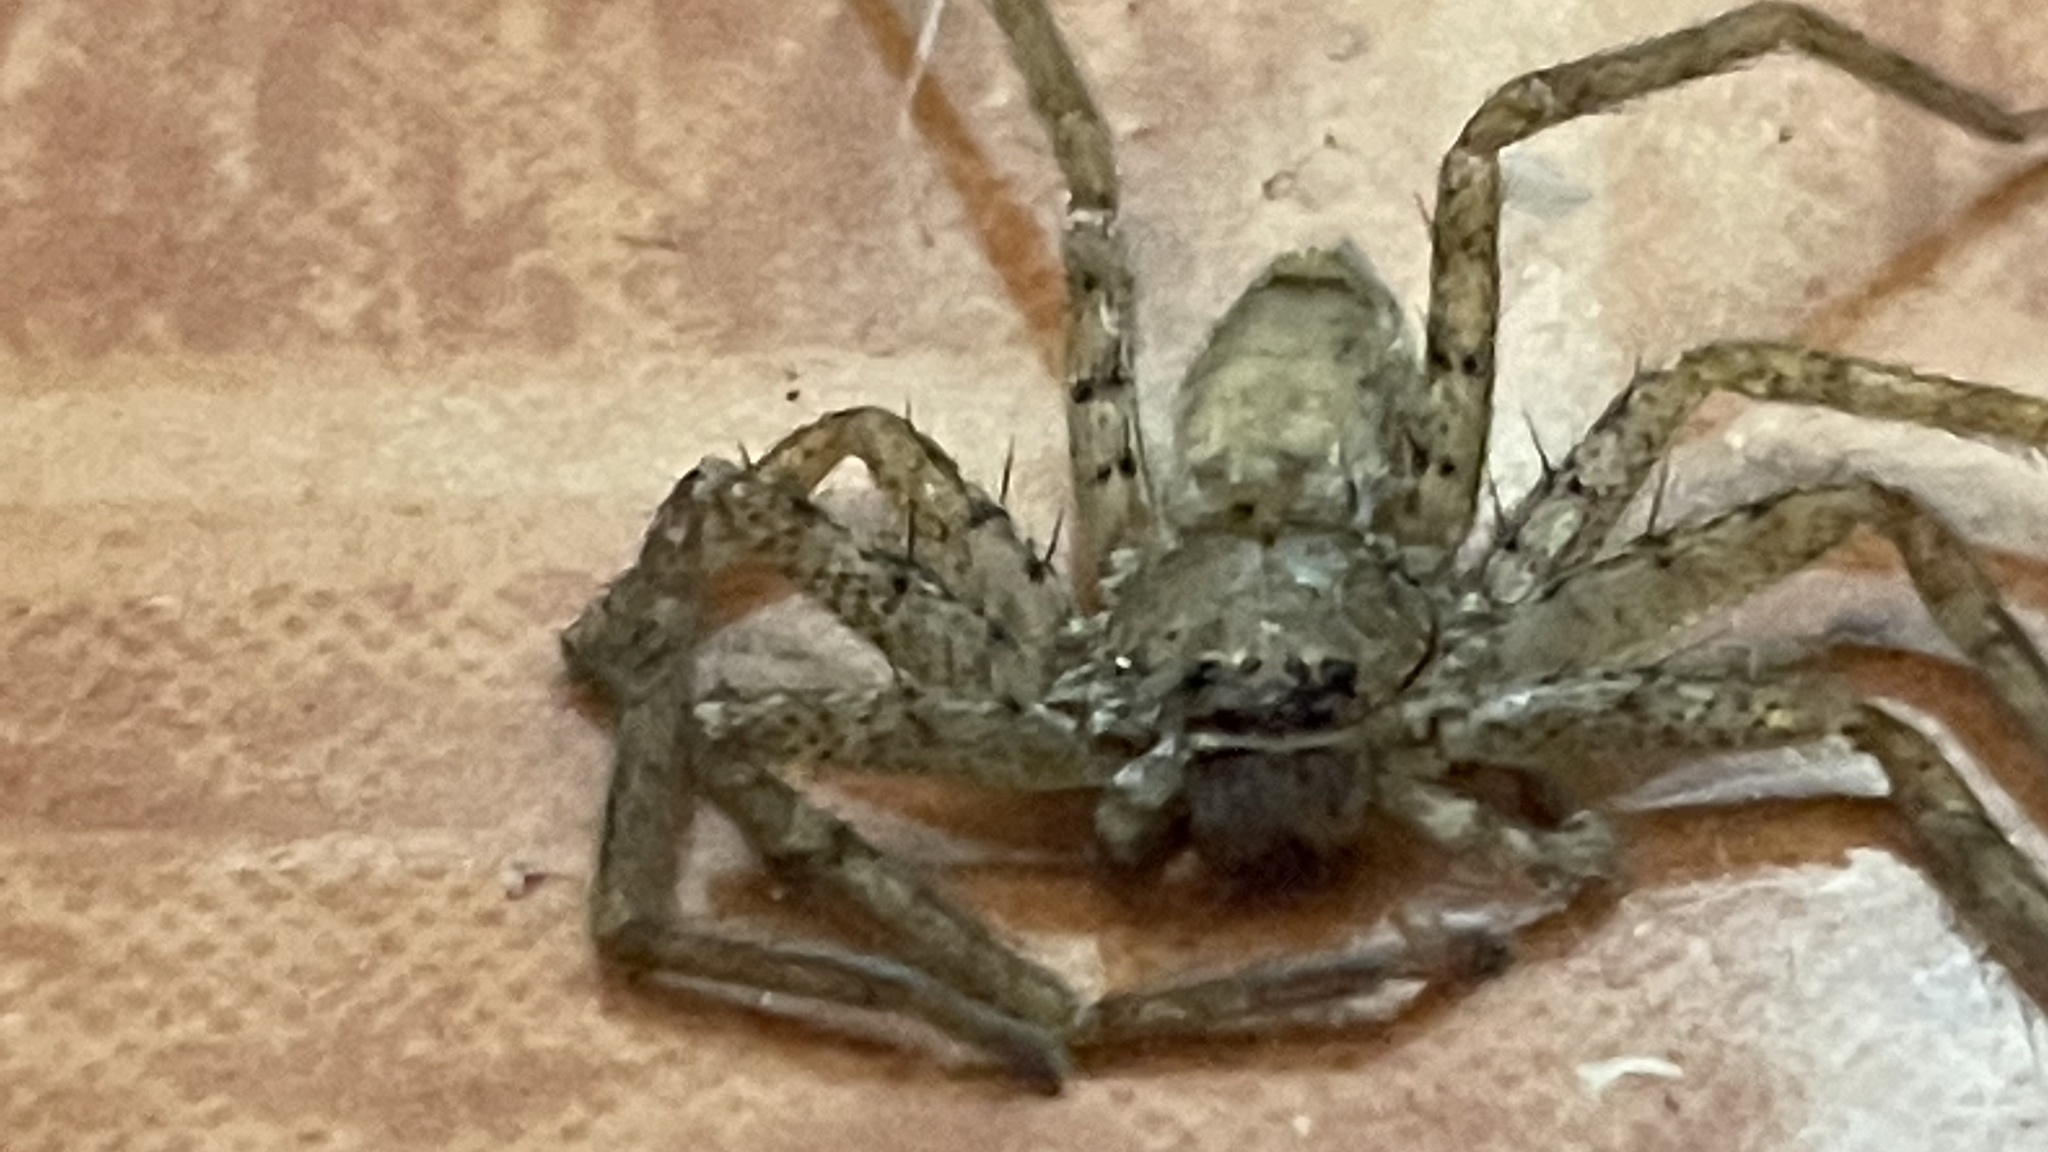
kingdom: Animalia
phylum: Arthropoda
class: Arachnida
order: Araneae
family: Sparassidae
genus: Heteropoda
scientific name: Heteropoda venatoria
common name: Huntsman spider
